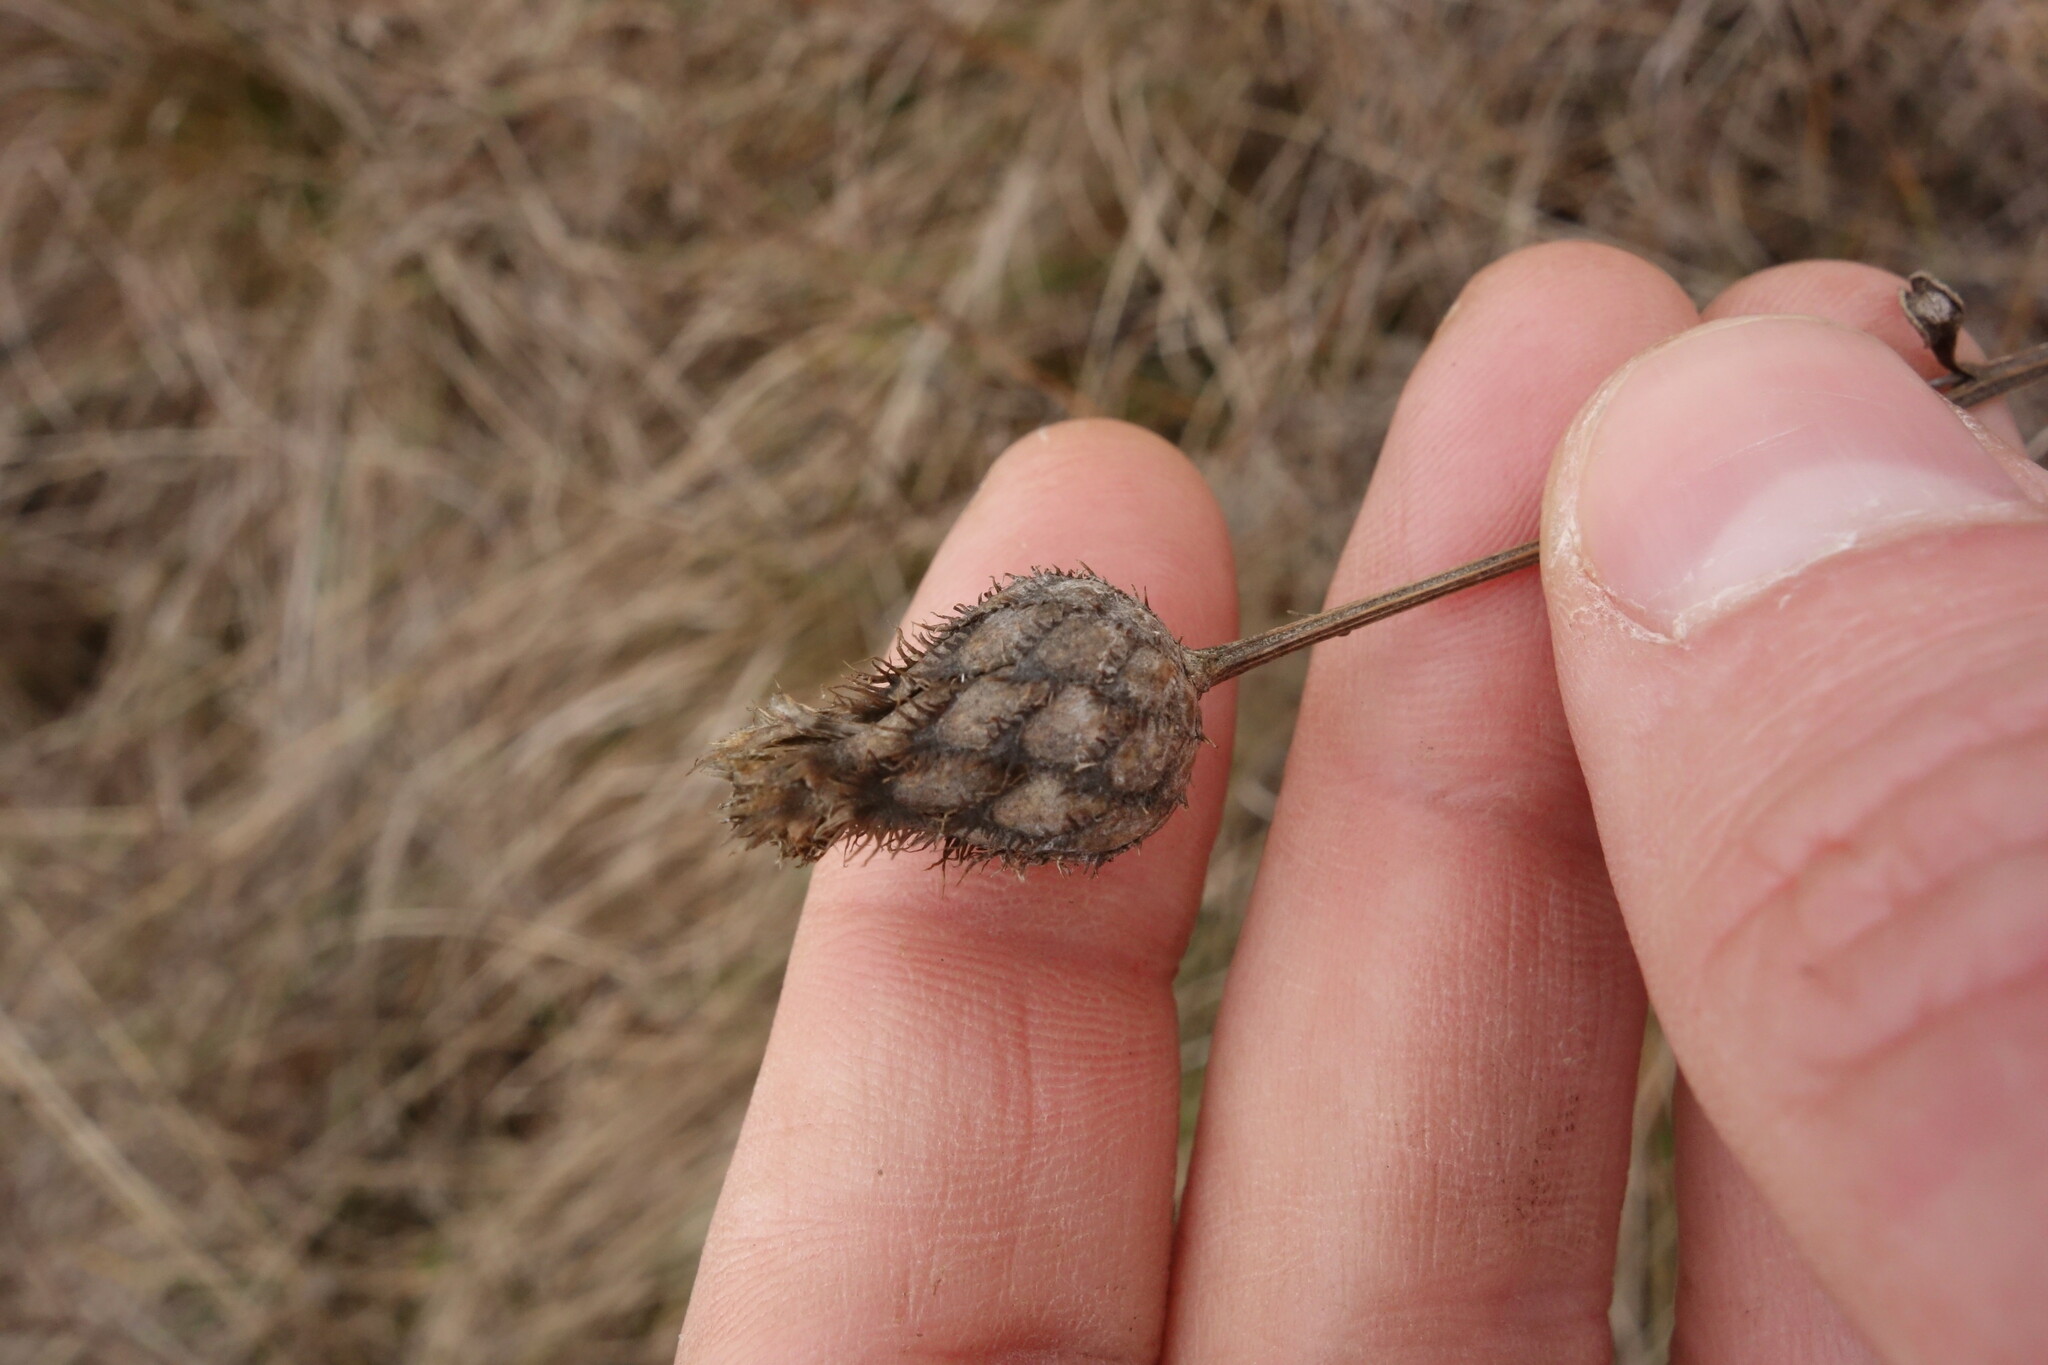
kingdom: Plantae
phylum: Tracheophyta
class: Magnoliopsida
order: Asterales
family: Asteraceae
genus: Centaurea
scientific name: Centaurea scabiosa
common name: Greater knapweed
